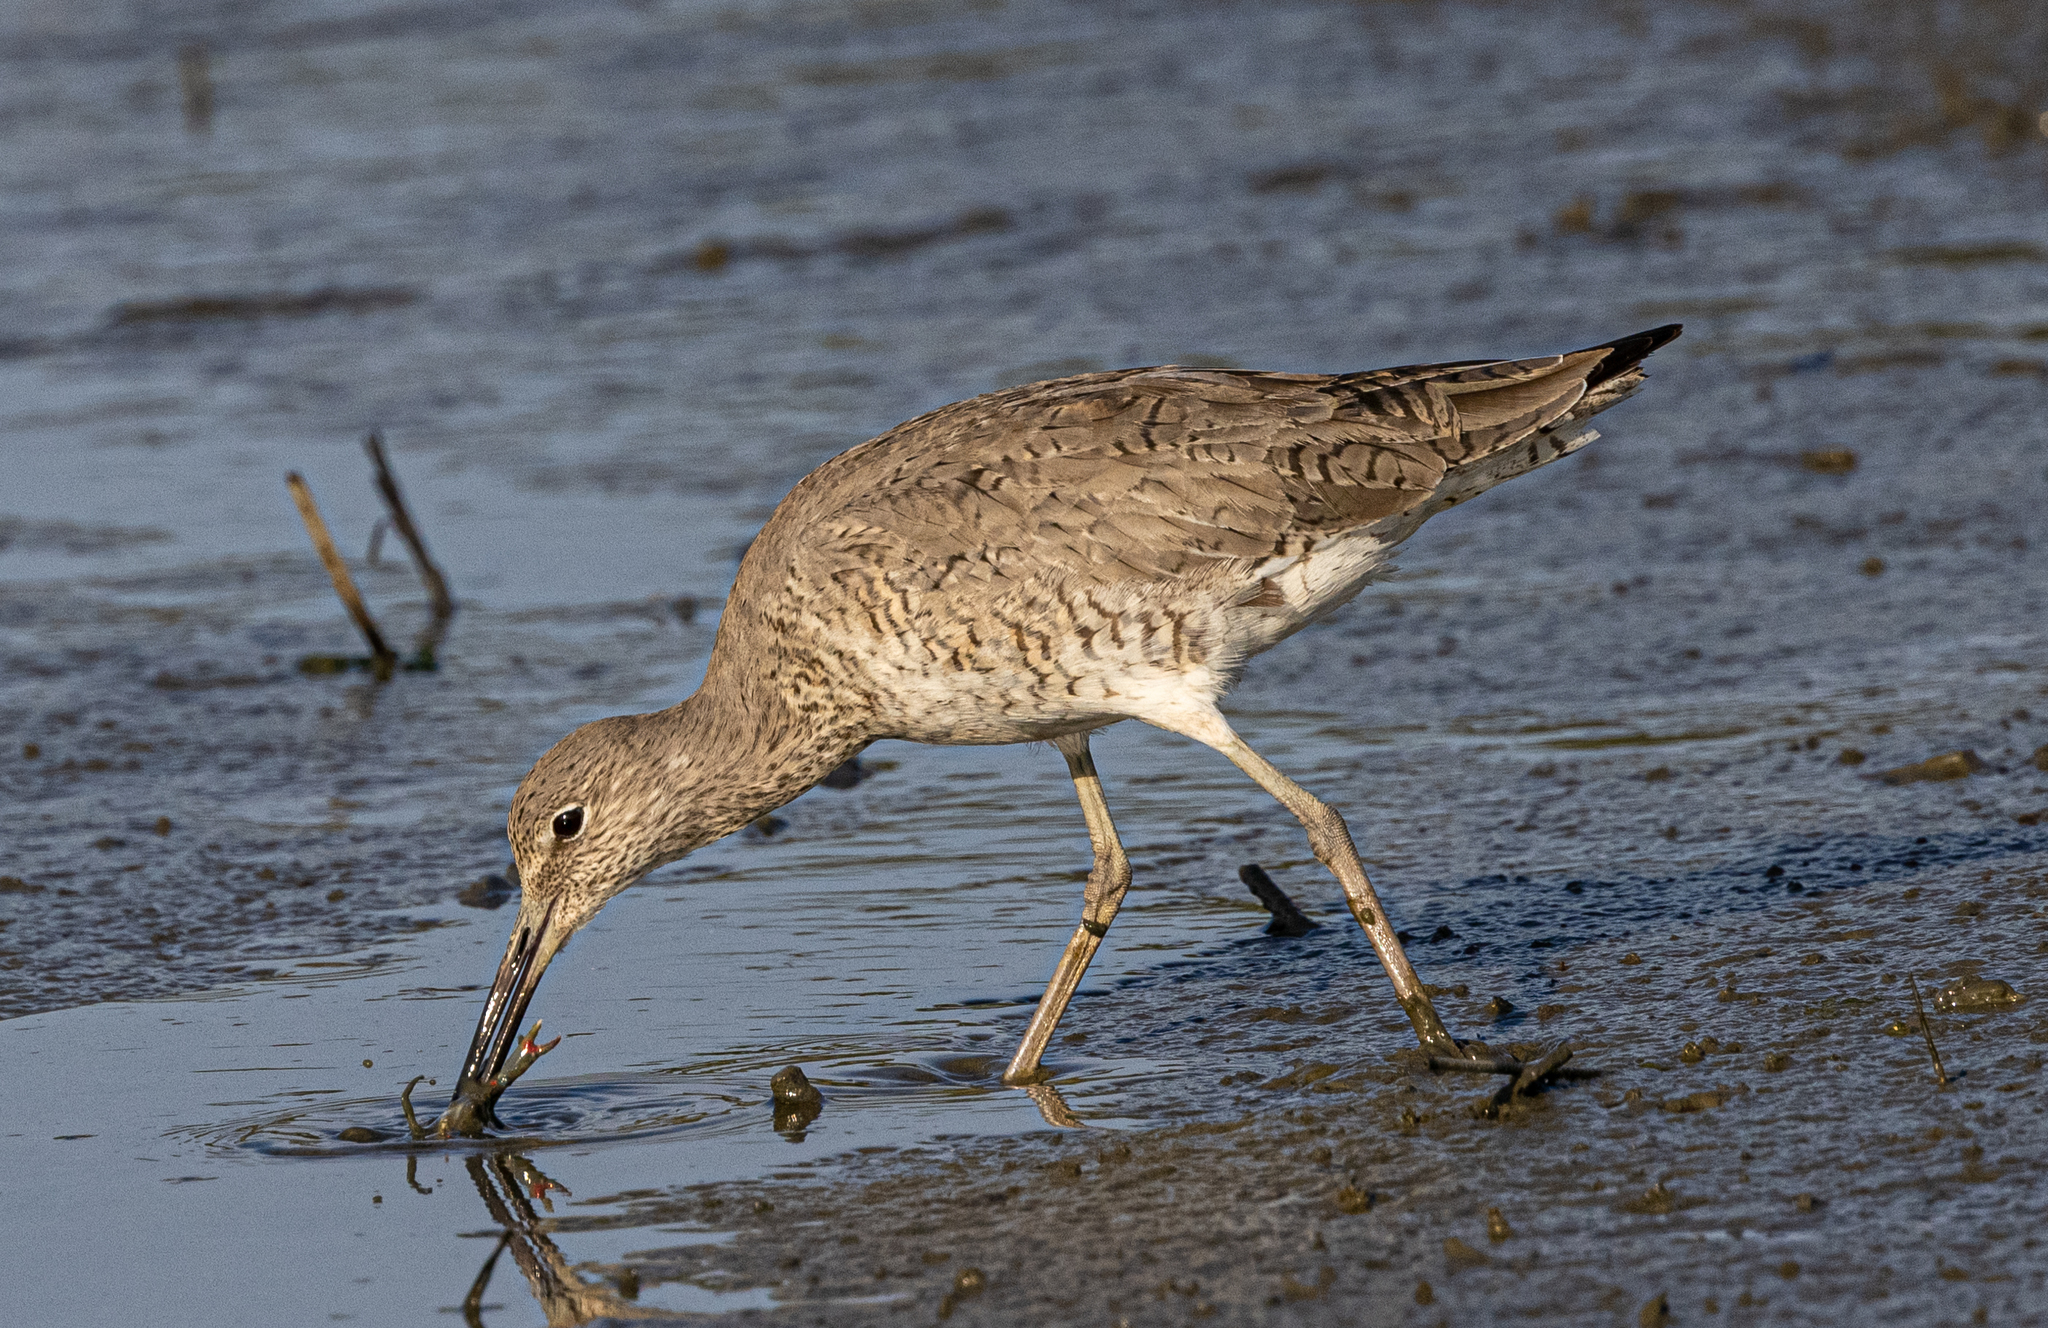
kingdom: Animalia
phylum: Chordata
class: Aves
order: Charadriiformes
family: Scolopacidae
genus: Tringa
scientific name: Tringa semipalmata
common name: Willet
